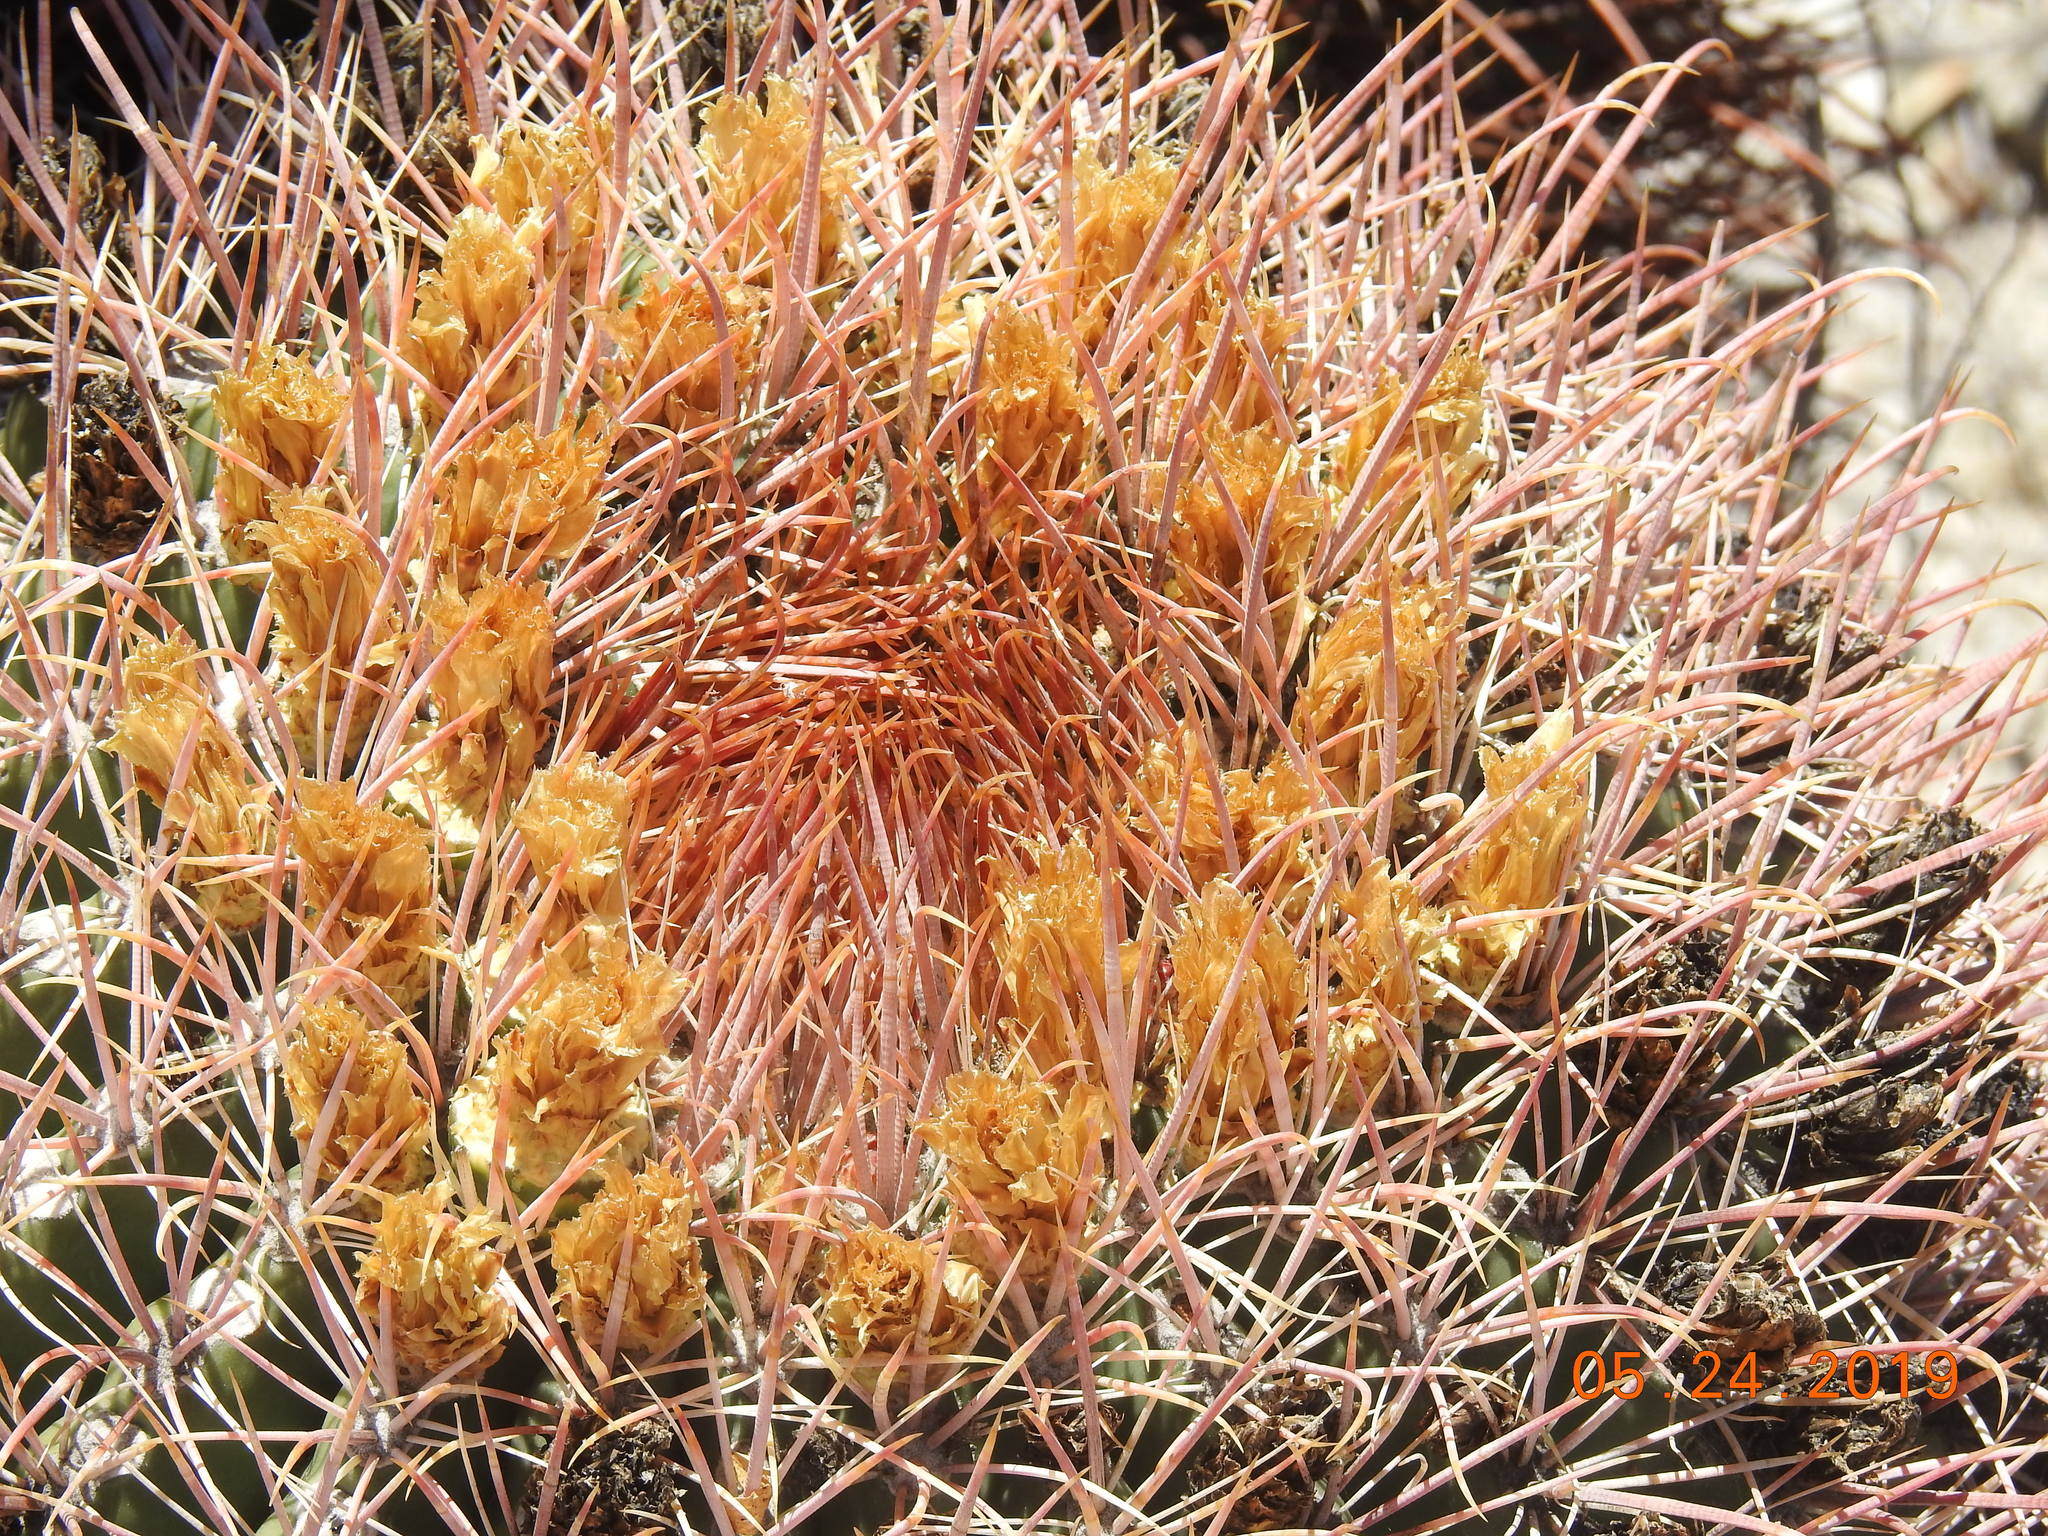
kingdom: Plantae
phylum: Tracheophyta
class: Magnoliopsida
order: Caryophyllales
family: Cactaceae
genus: Ferocactus
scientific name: Ferocactus cylindraceus
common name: California barrel cactus
